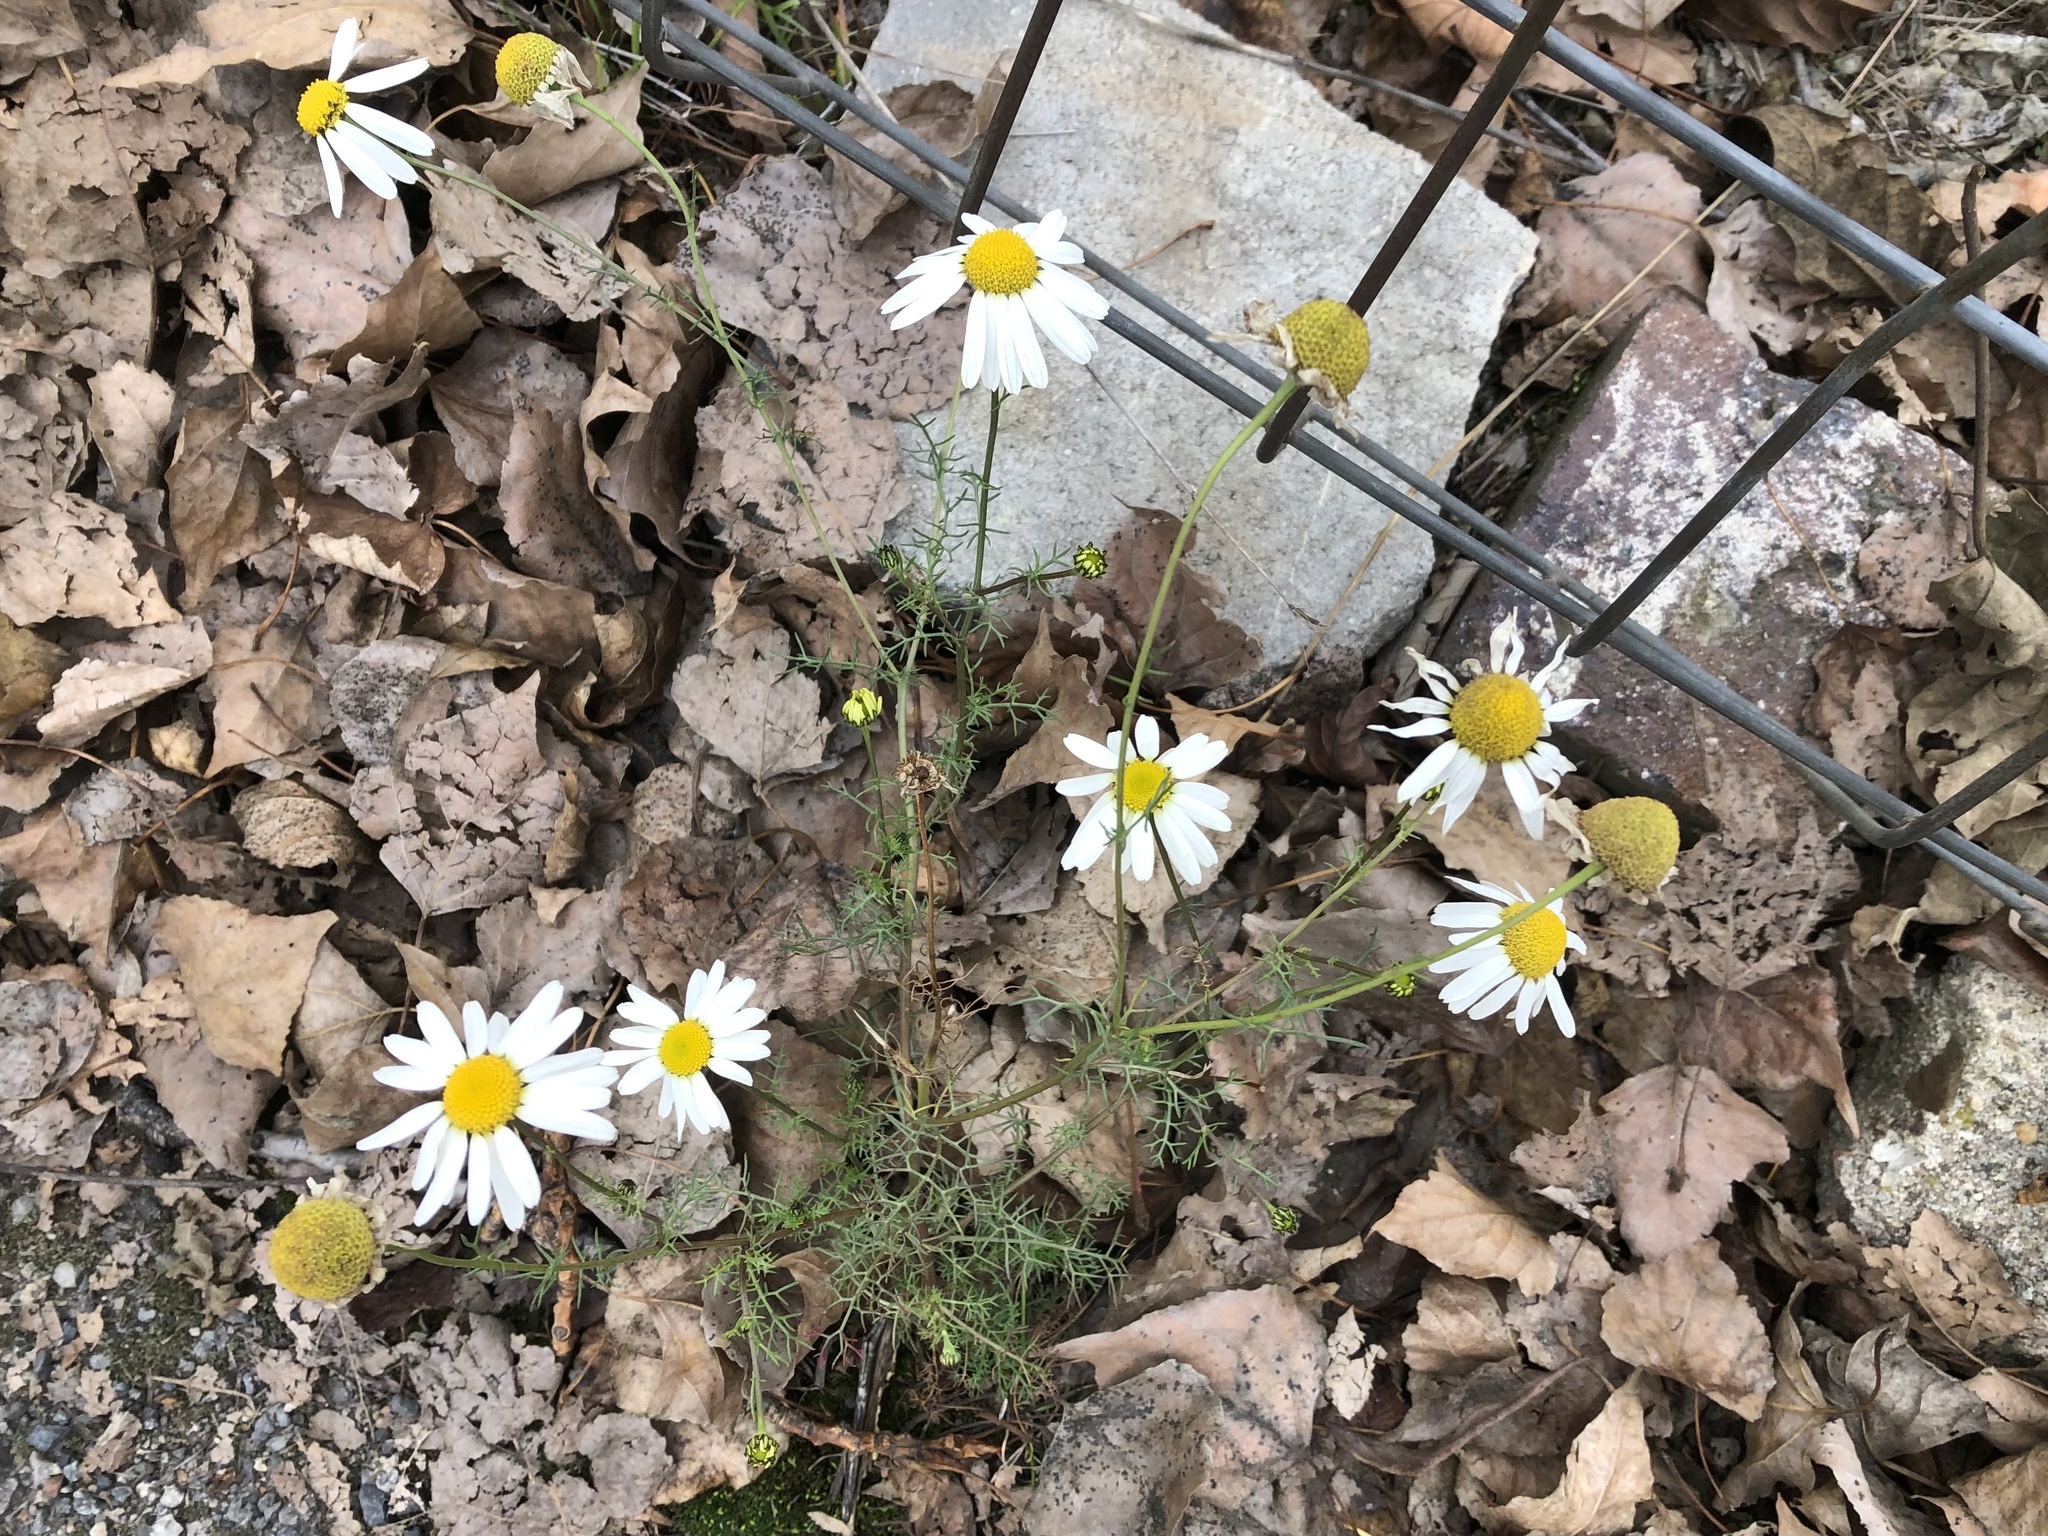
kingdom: Plantae
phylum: Tracheophyta
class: Magnoliopsida
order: Asterales
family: Asteraceae
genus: Tripleurospermum
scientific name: Tripleurospermum inodorum
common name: Scentless mayweed
